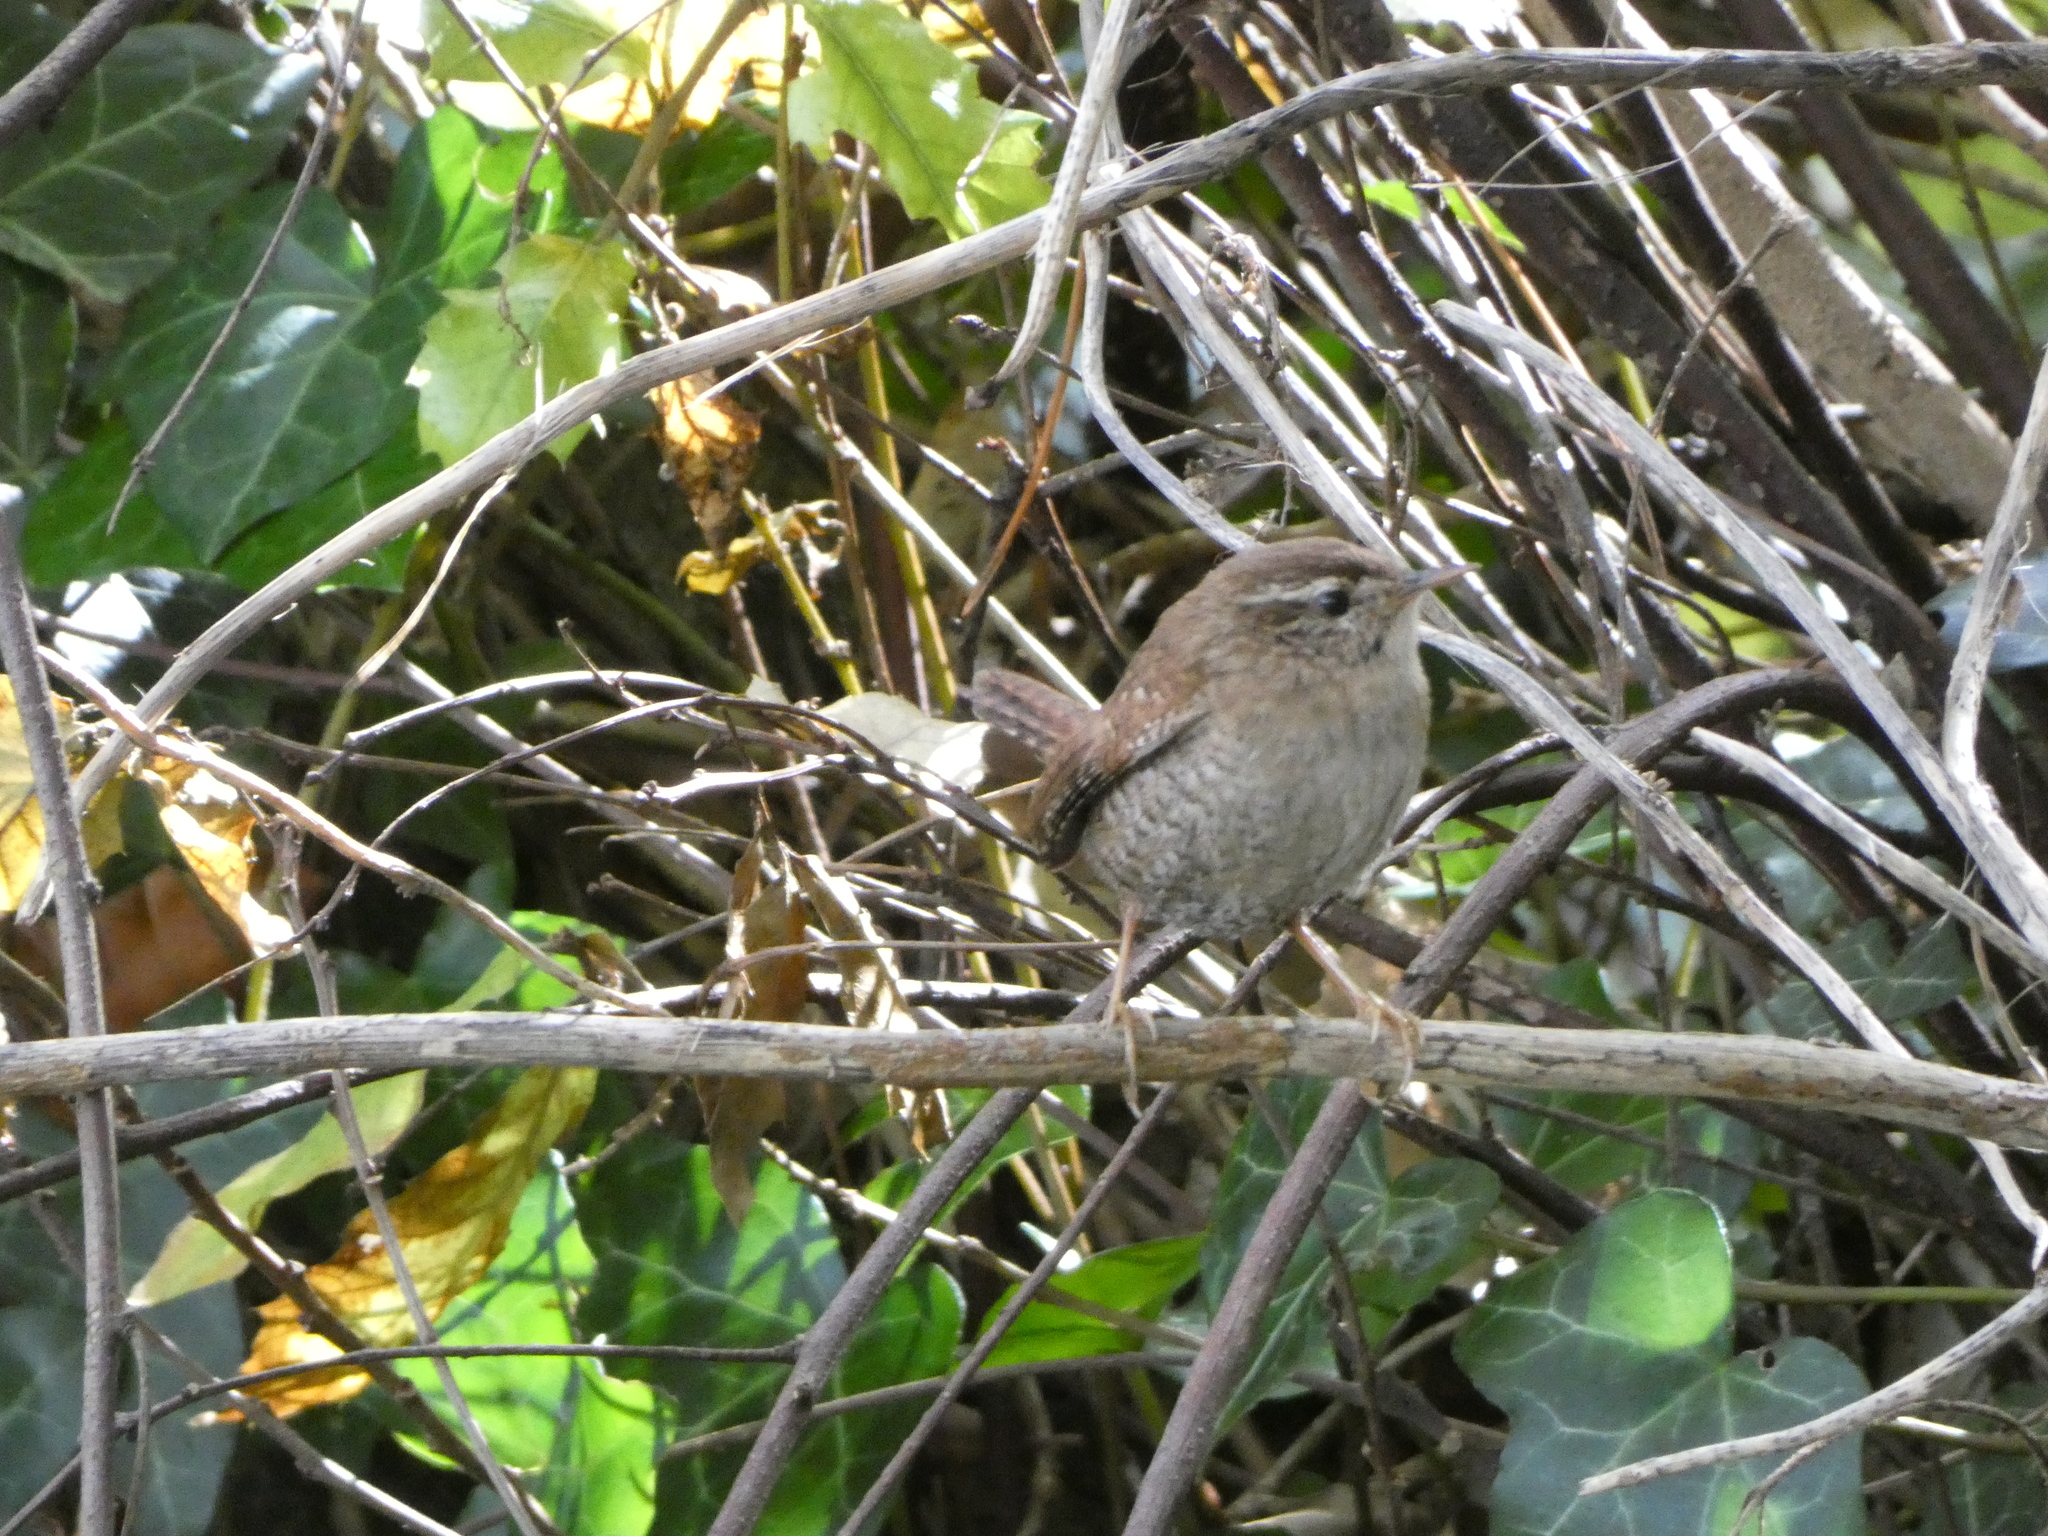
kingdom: Animalia
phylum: Chordata
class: Aves
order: Passeriformes
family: Troglodytidae
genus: Troglodytes
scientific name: Troglodytes troglodytes
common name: Eurasian wren
